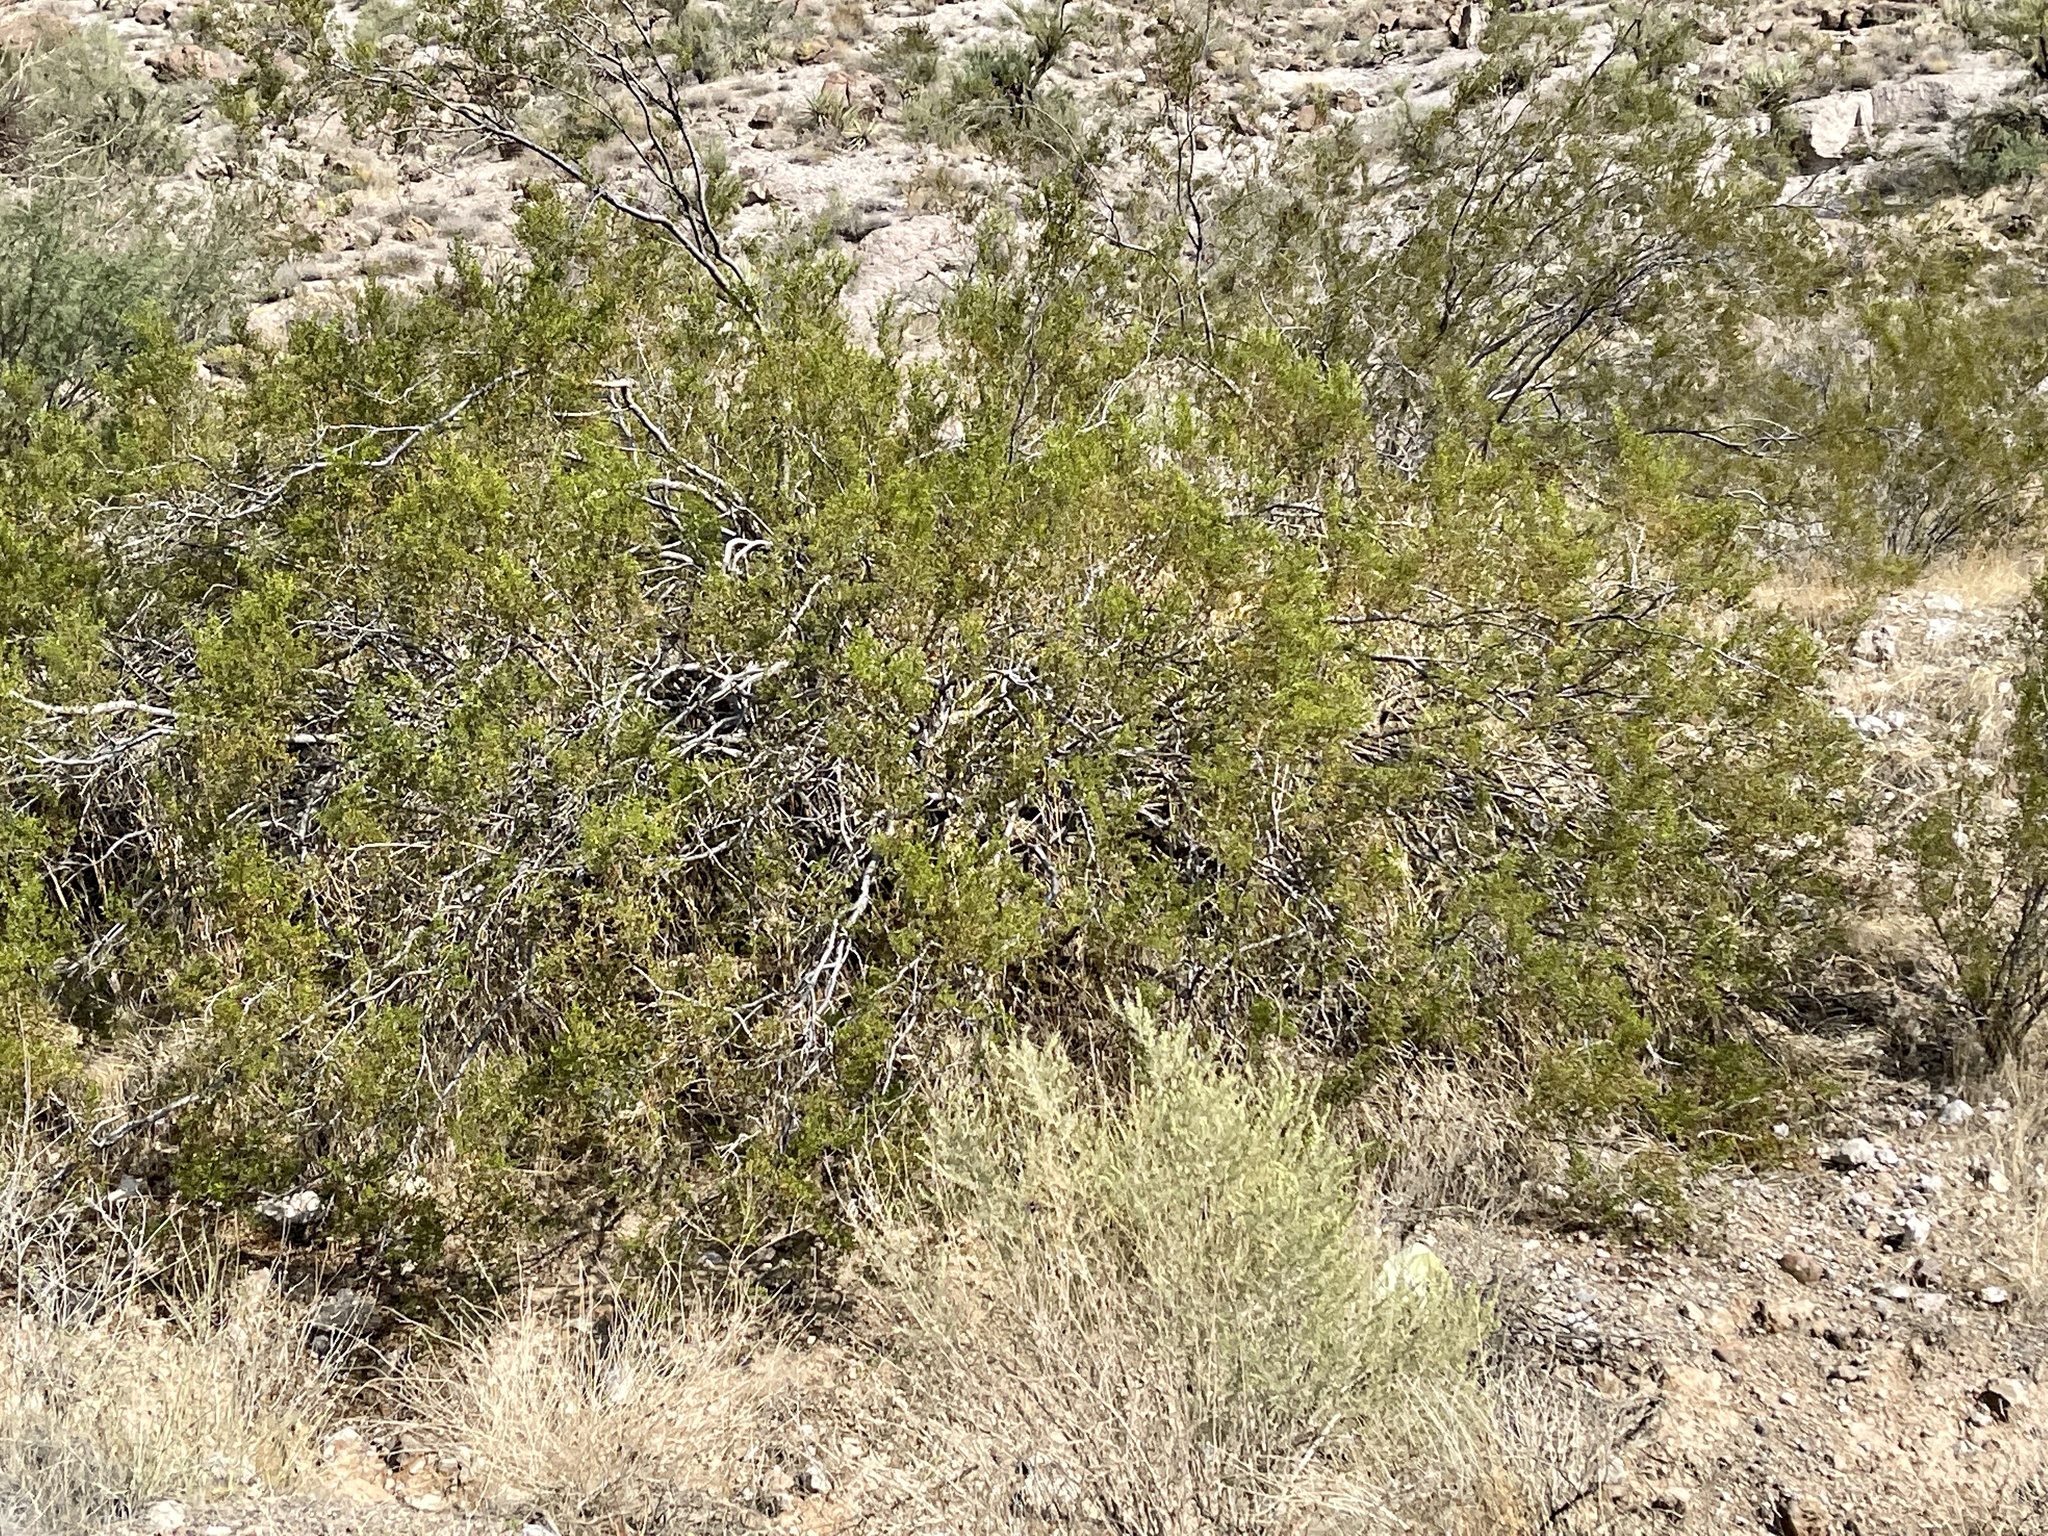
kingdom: Plantae
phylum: Tracheophyta
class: Magnoliopsida
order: Zygophyllales
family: Zygophyllaceae
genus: Larrea
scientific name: Larrea tridentata
